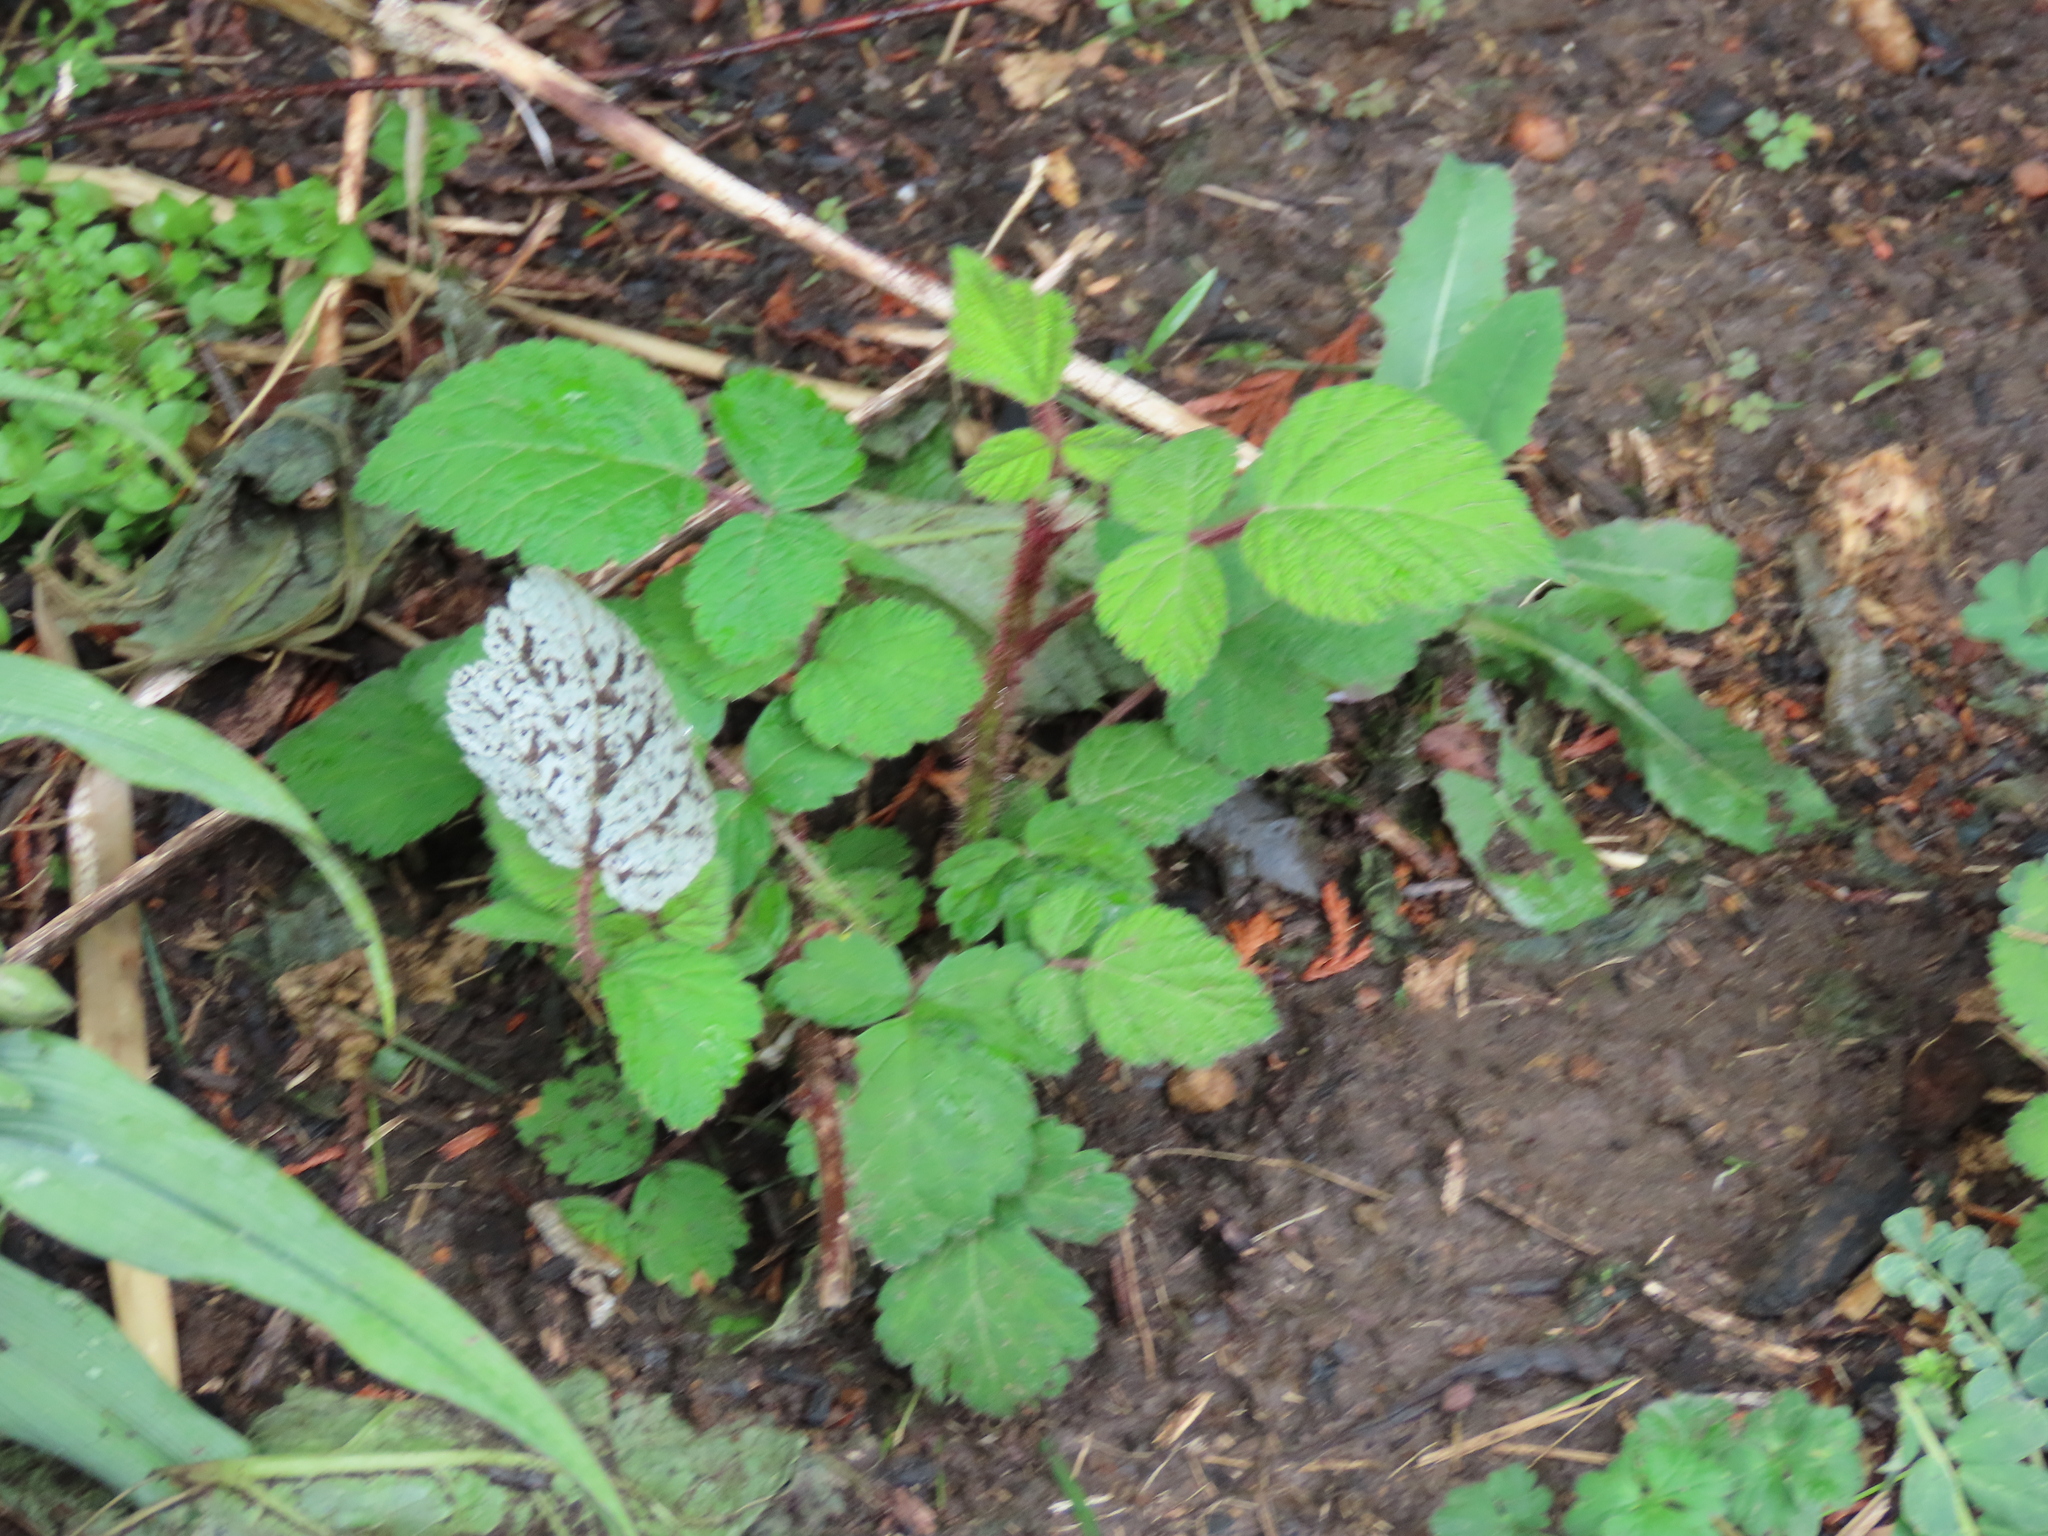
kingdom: Plantae
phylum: Tracheophyta
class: Magnoliopsida
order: Rosales
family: Rosaceae
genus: Rubus
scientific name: Rubus phoenicolasius
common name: Japanese wineberry
